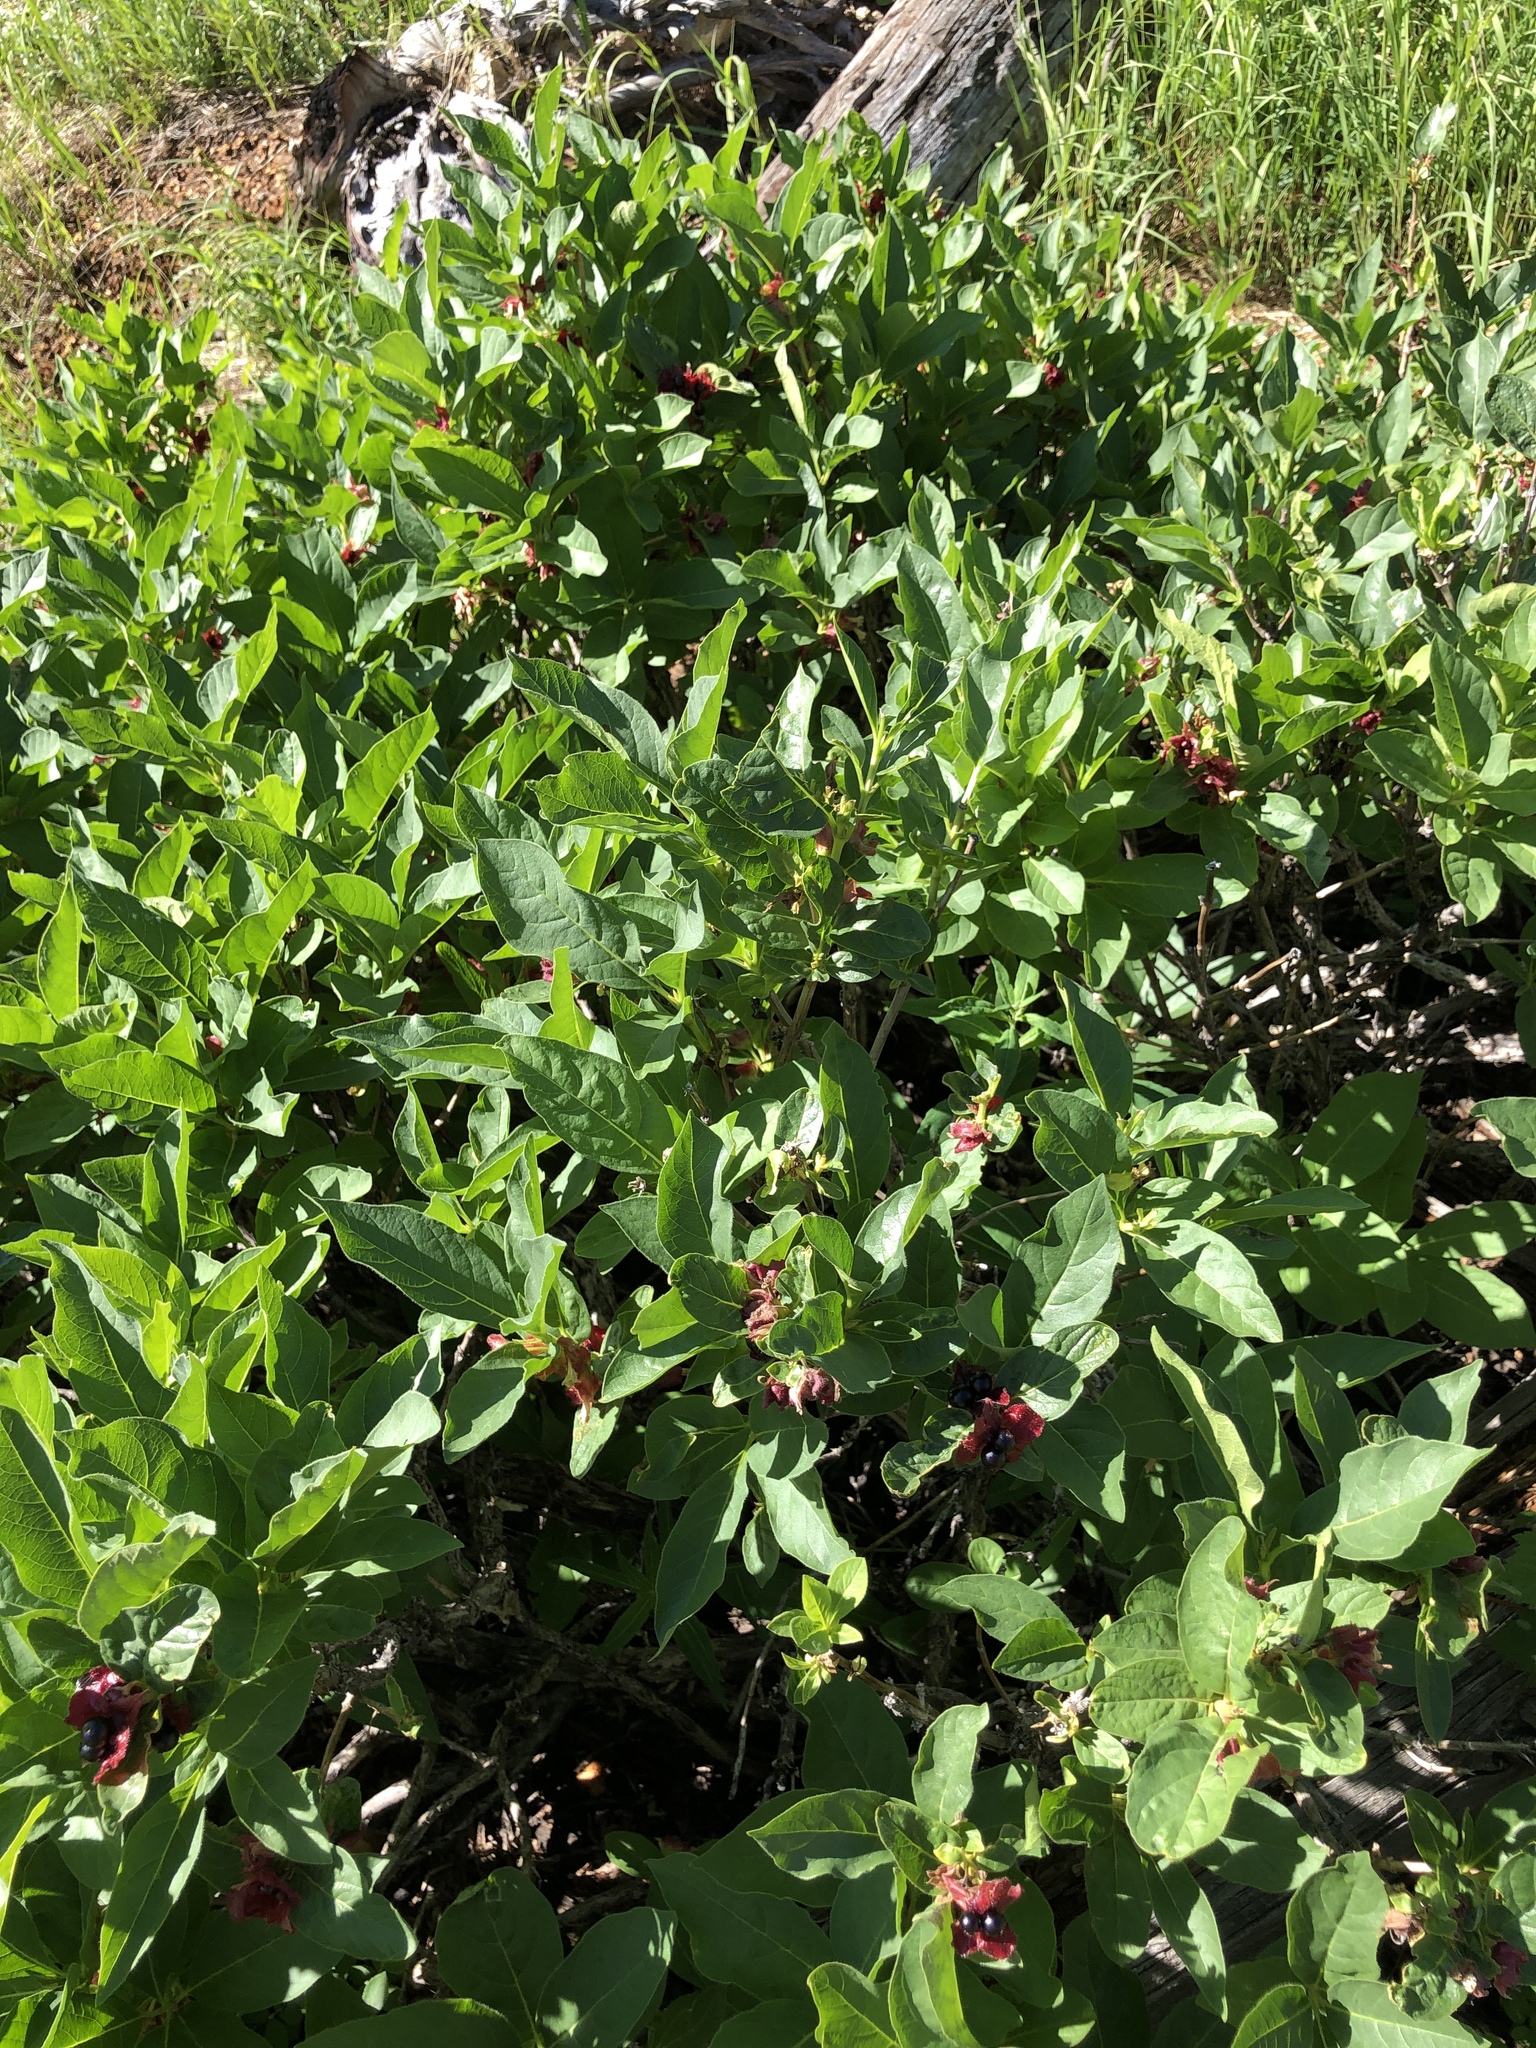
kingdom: Plantae
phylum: Tracheophyta
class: Magnoliopsida
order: Dipsacales
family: Caprifoliaceae
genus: Lonicera
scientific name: Lonicera involucrata
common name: Californian honeysuckle
